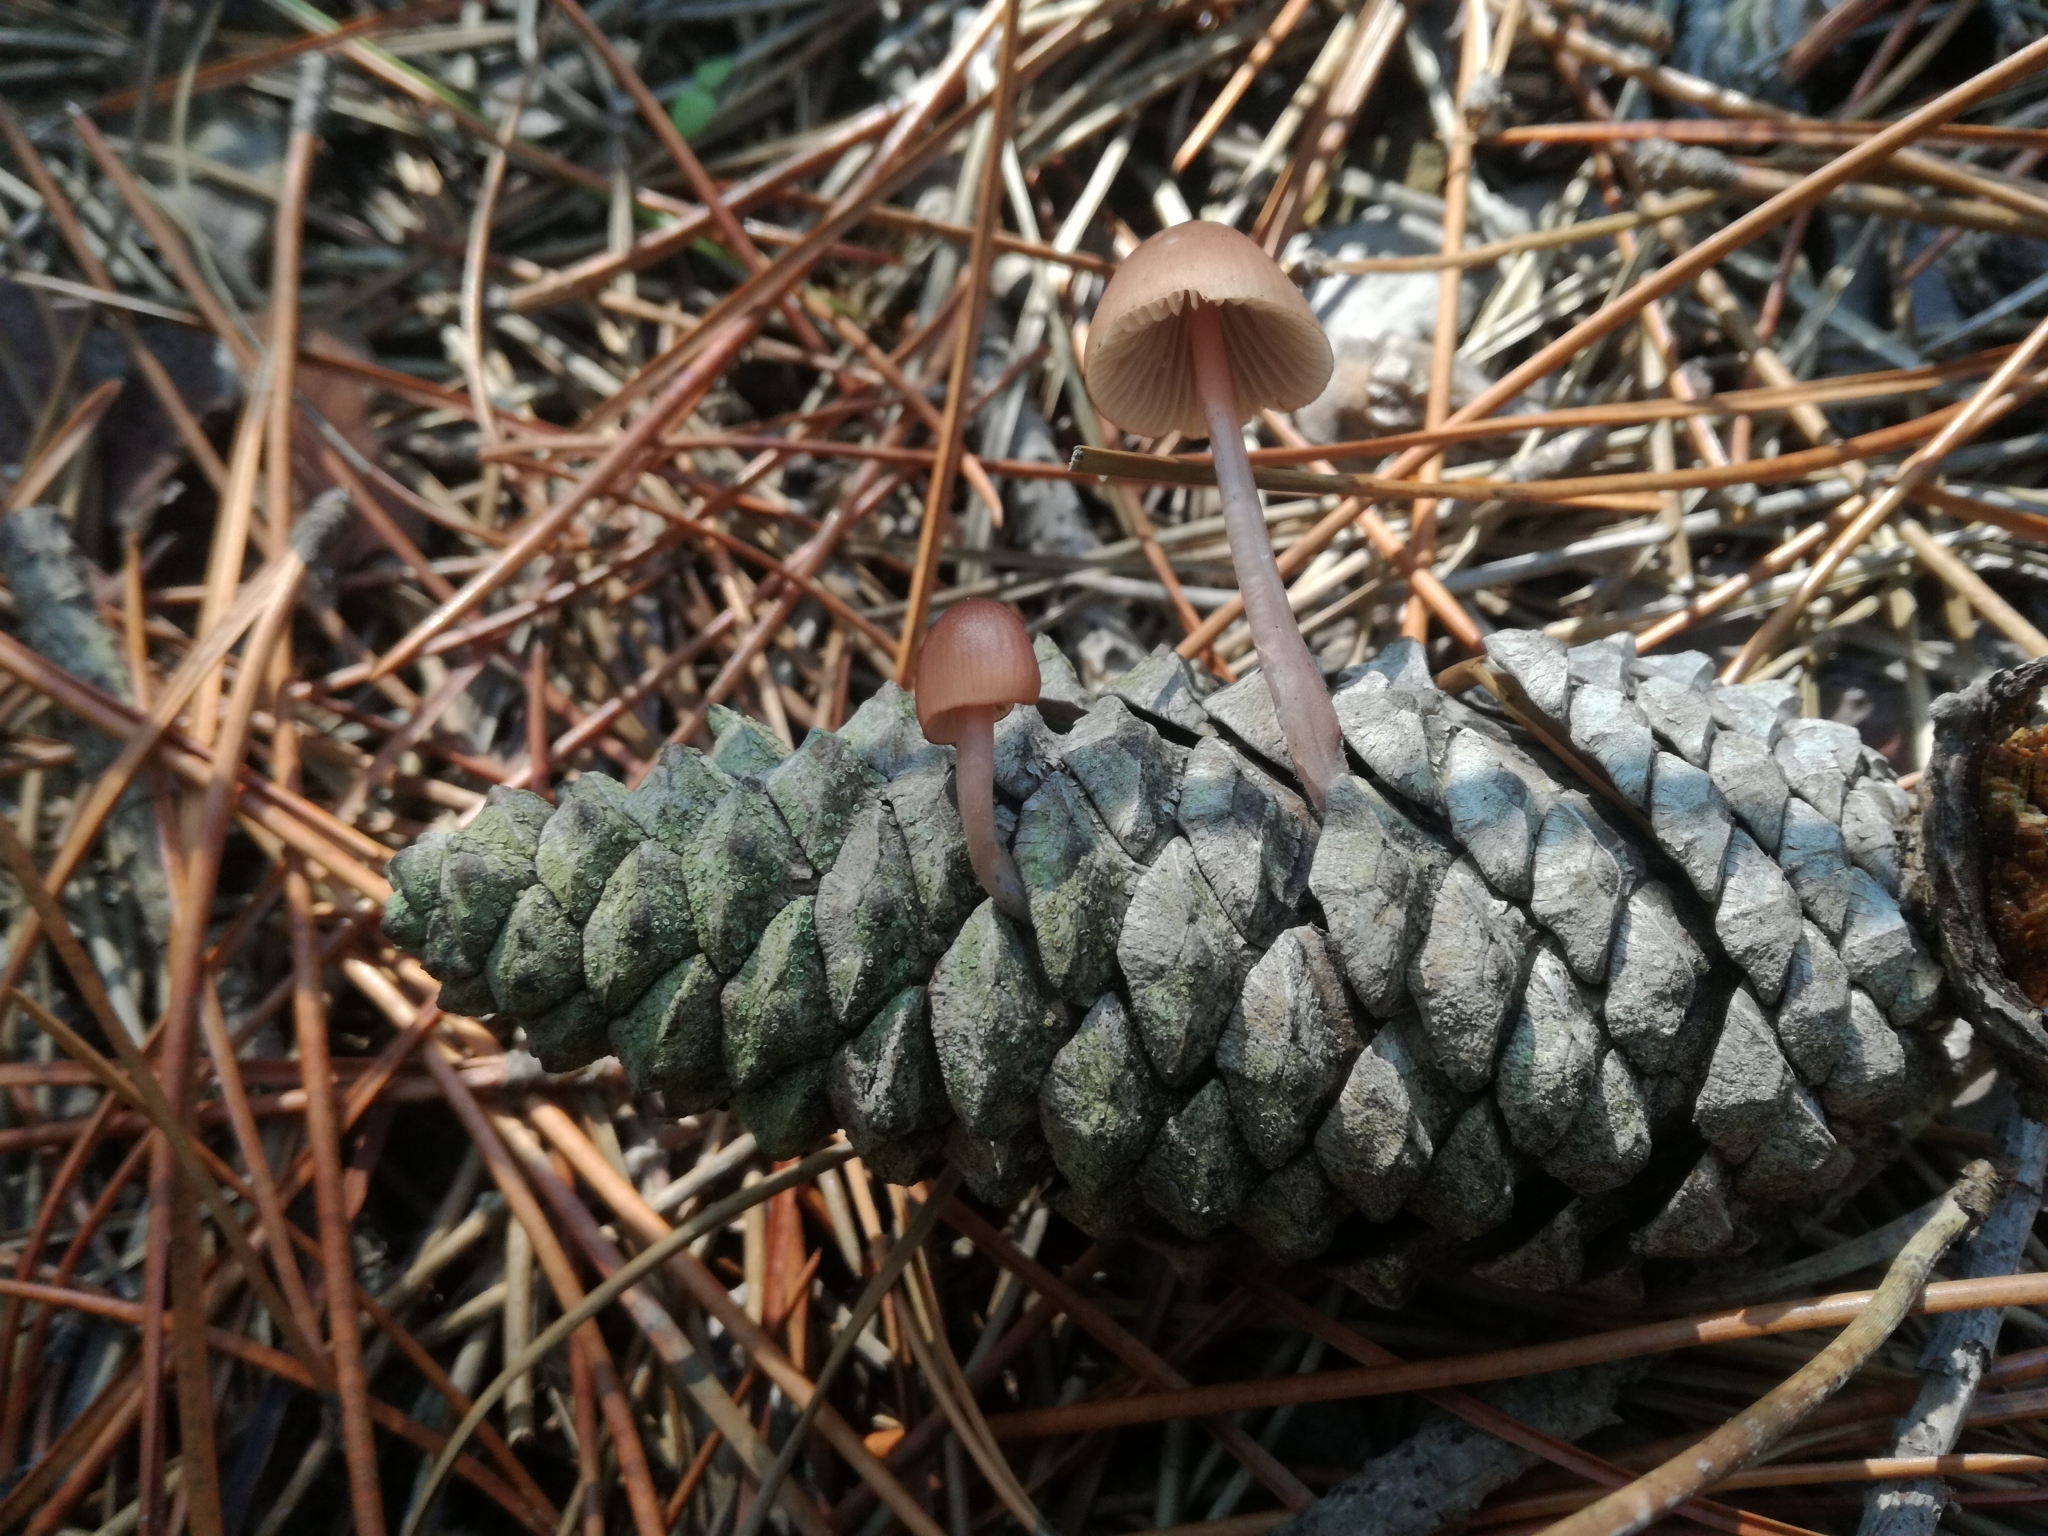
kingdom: Fungi
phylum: Basidiomycota
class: Agaricomycetes
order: Agaricales
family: Mycenaceae
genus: Mycena
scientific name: Mycena seynii
